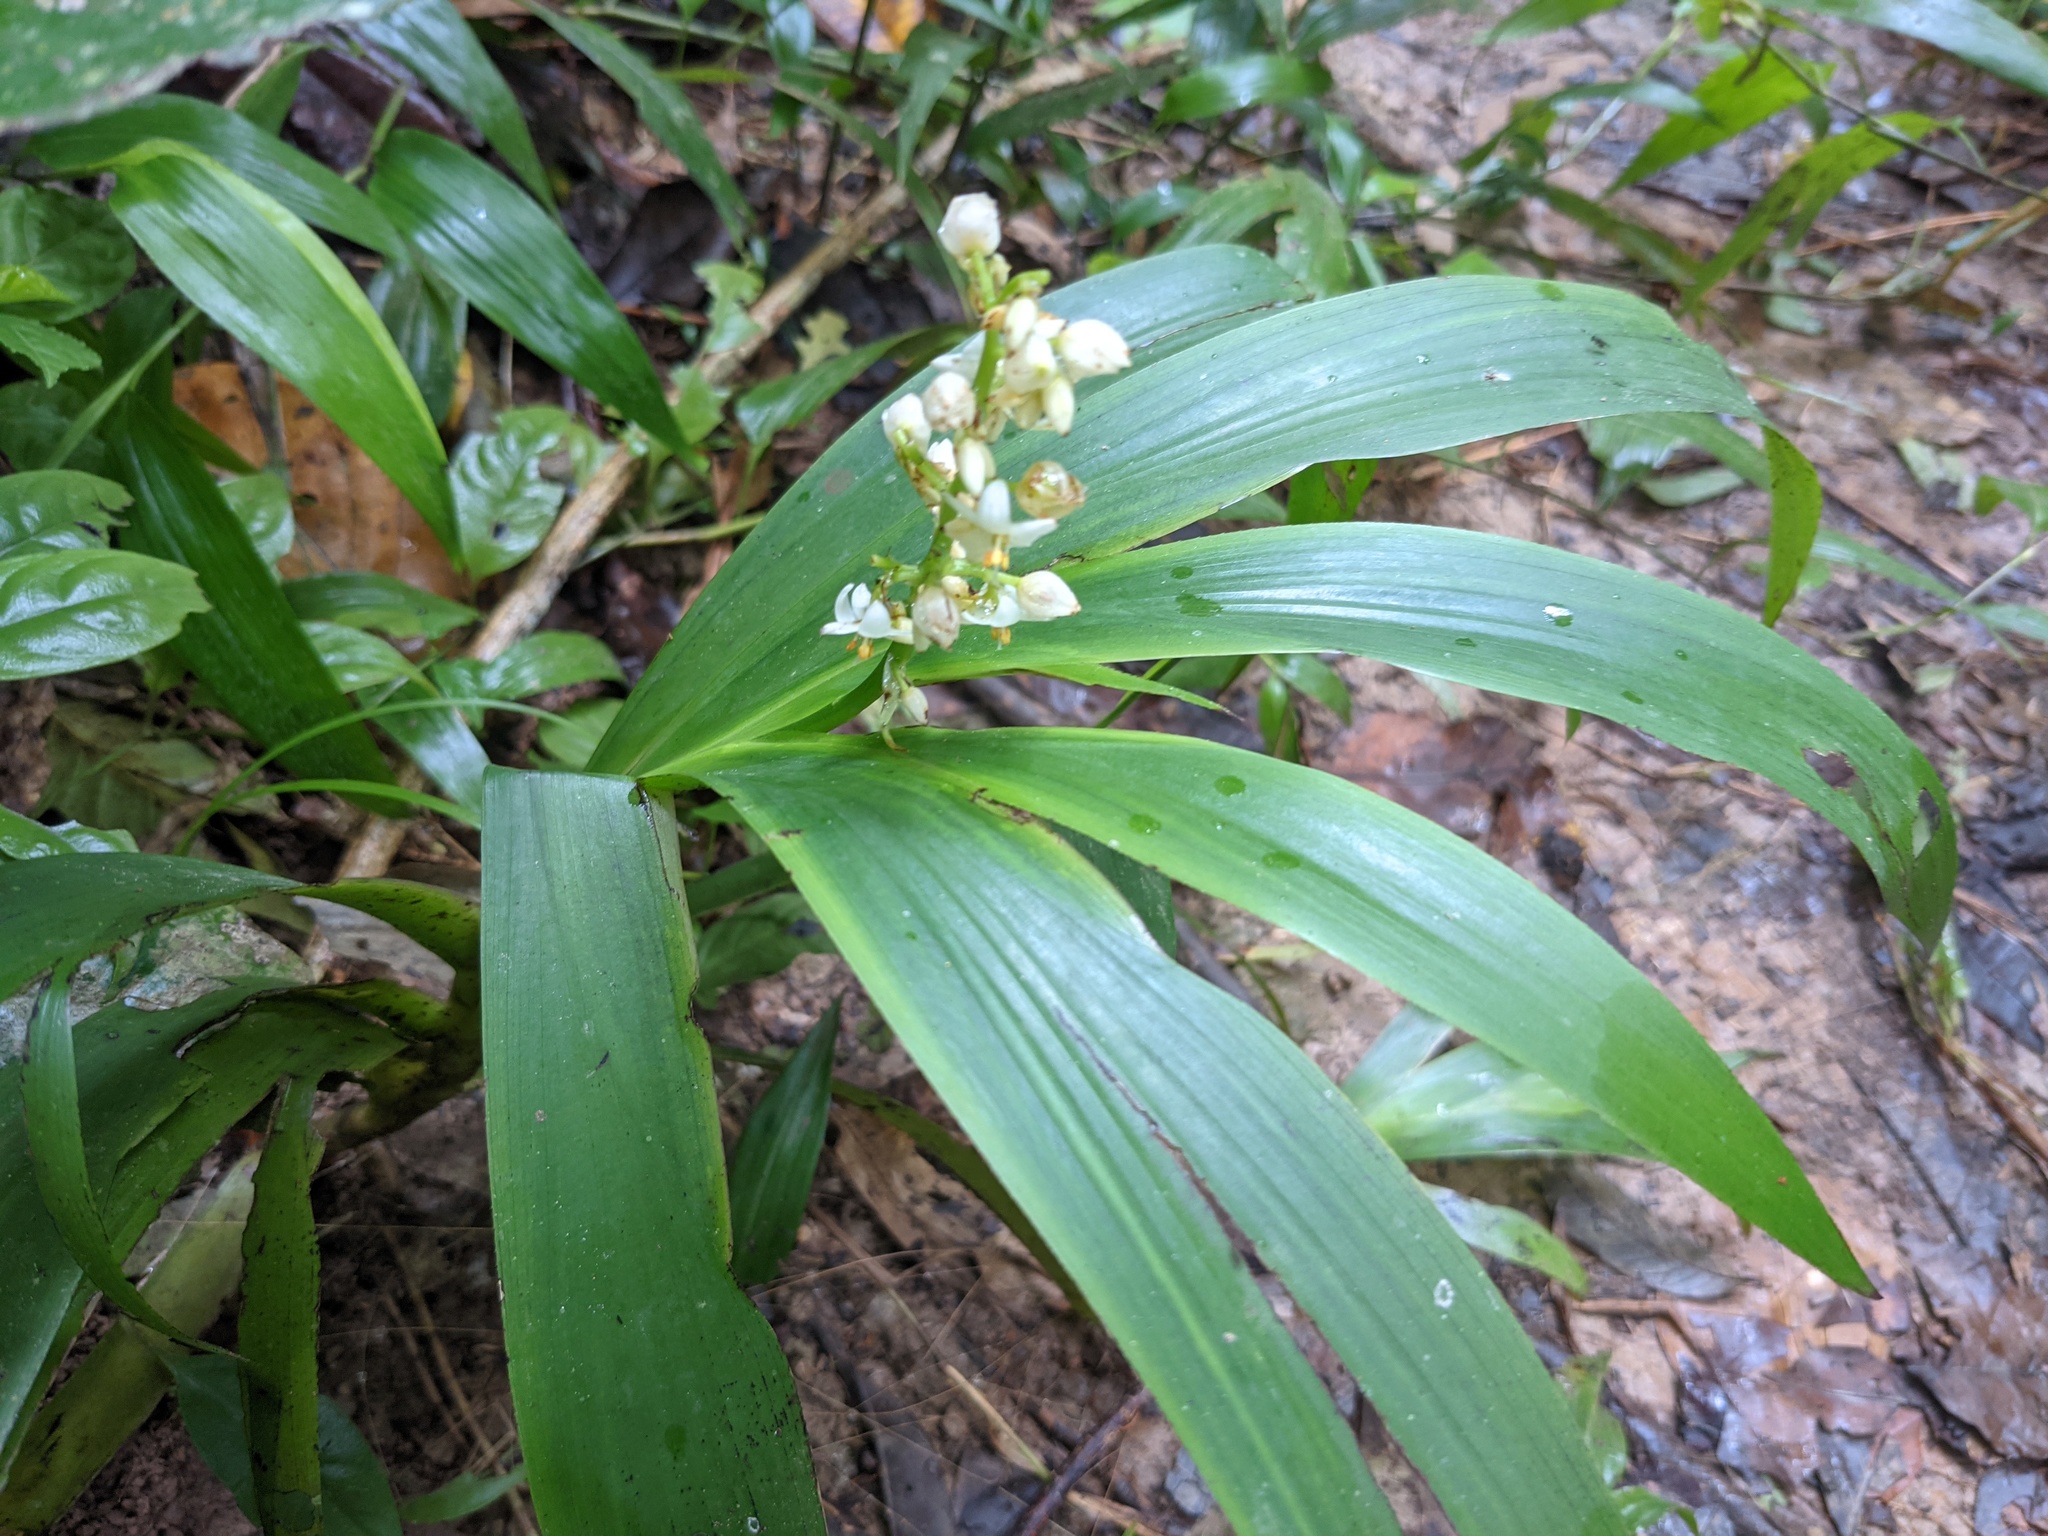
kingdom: Plantae
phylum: Tracheophyta
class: Liliopsida
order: Commelinales
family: Haemodoraceae
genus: Xiphidium
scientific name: Xiphidium caeruleum
